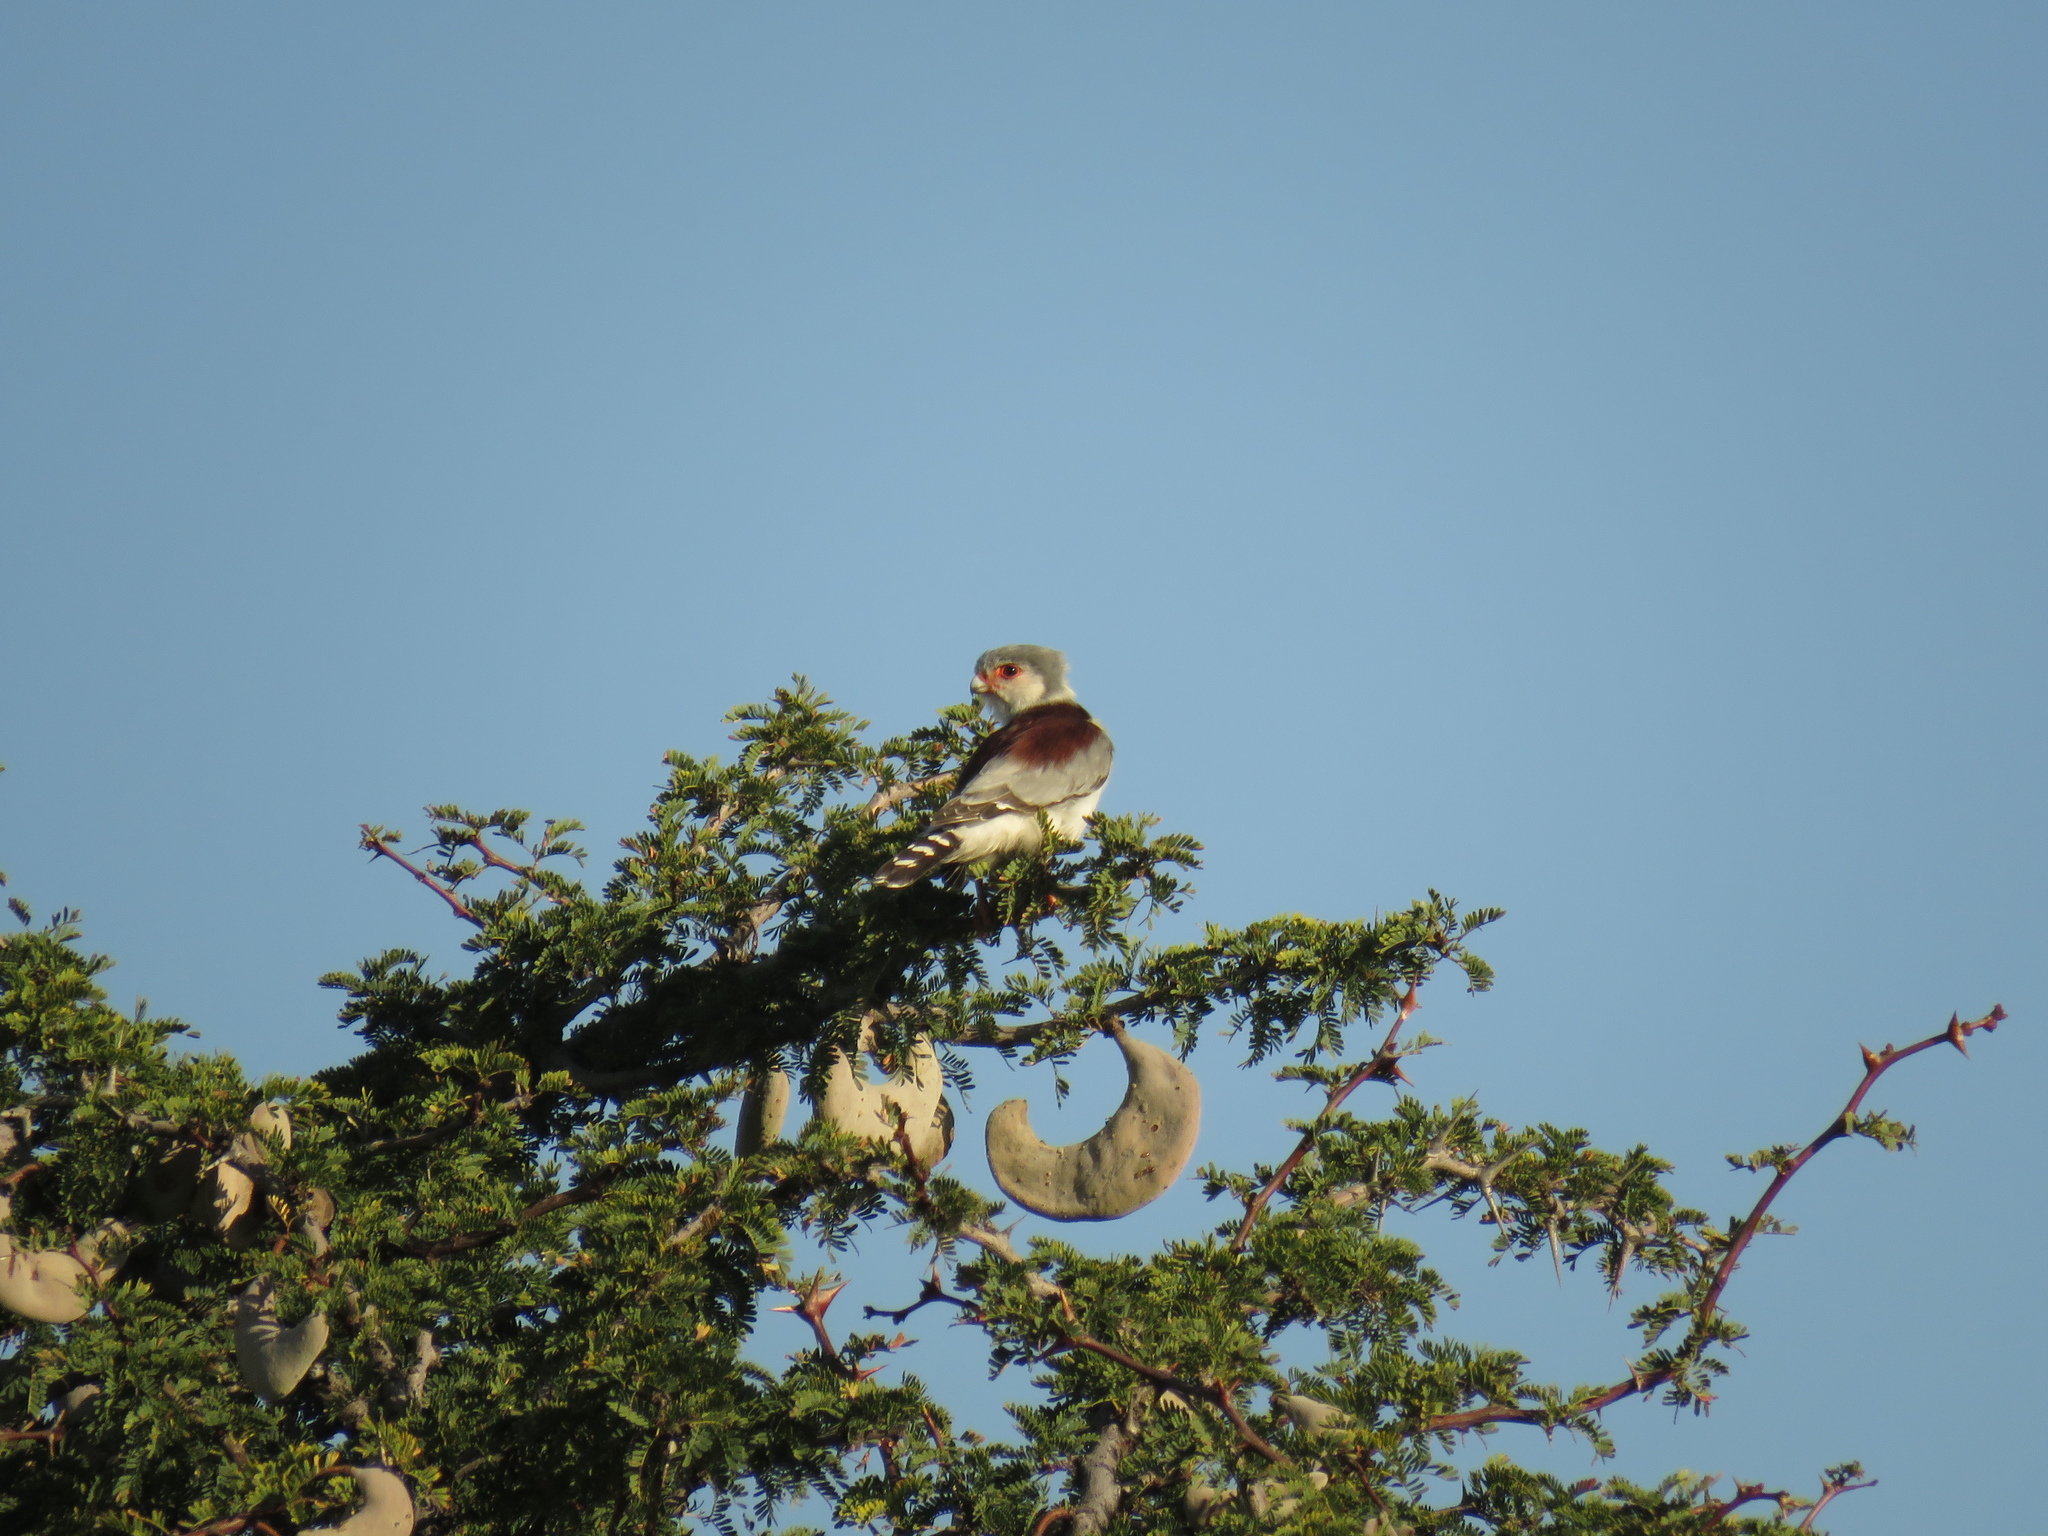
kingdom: Animalia
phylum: Chordata
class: Aves
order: Falconiformes
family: Falconidae
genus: Polihierax
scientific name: Polihierax semitorquatus
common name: Pygmy falcon
